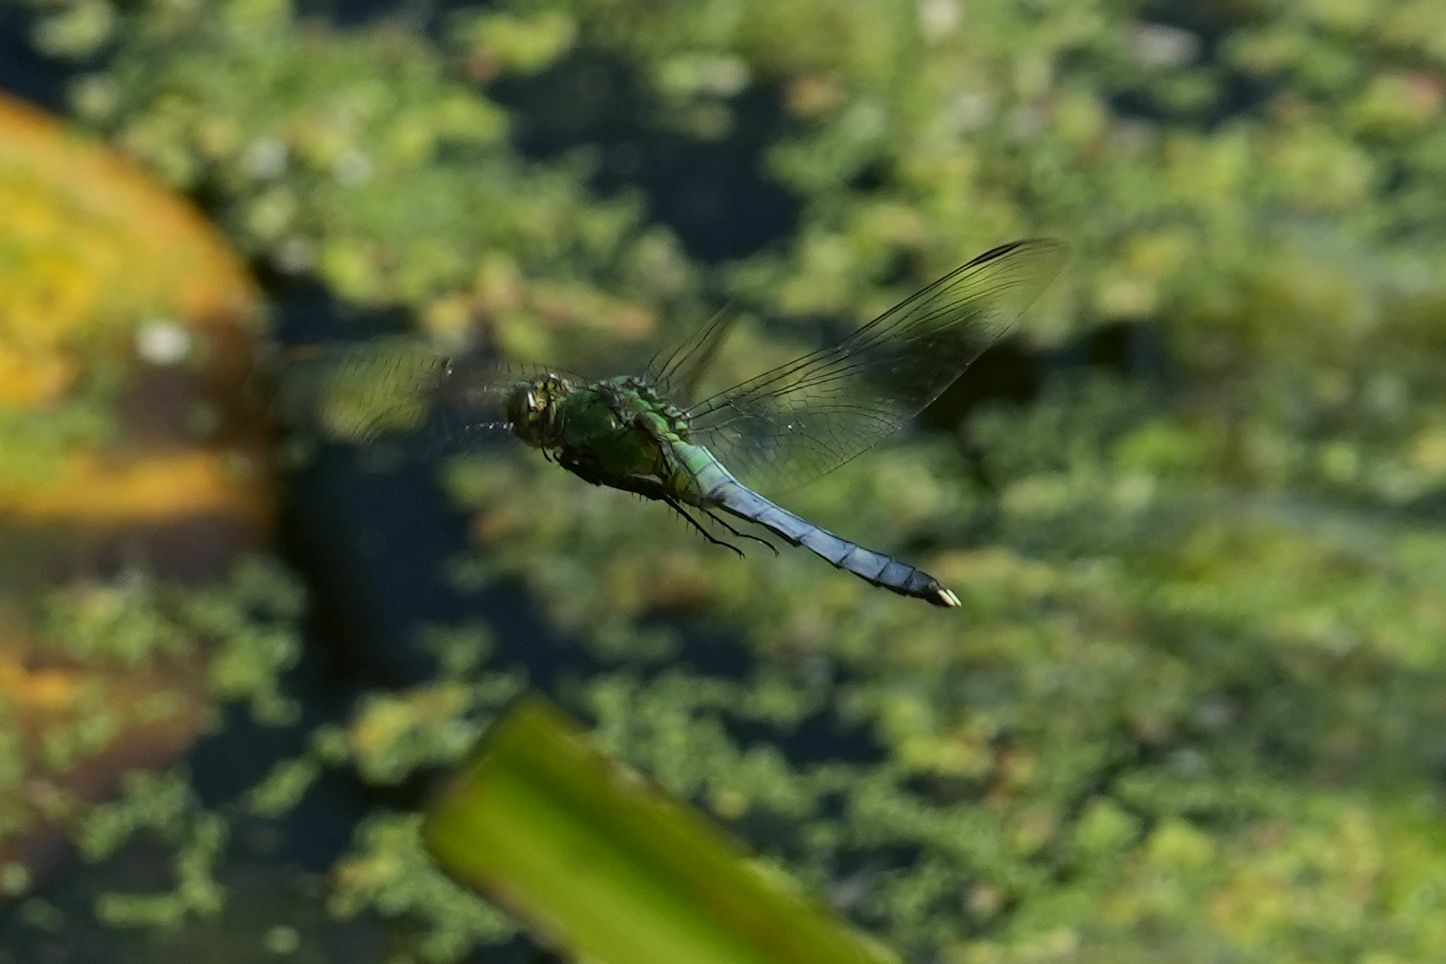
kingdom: Animalia
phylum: Arthropoda
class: Insecta
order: Odonata
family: Libellulidae
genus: Erythemis
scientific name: Erythemis simplicicollis
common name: Eastern pondhawk
